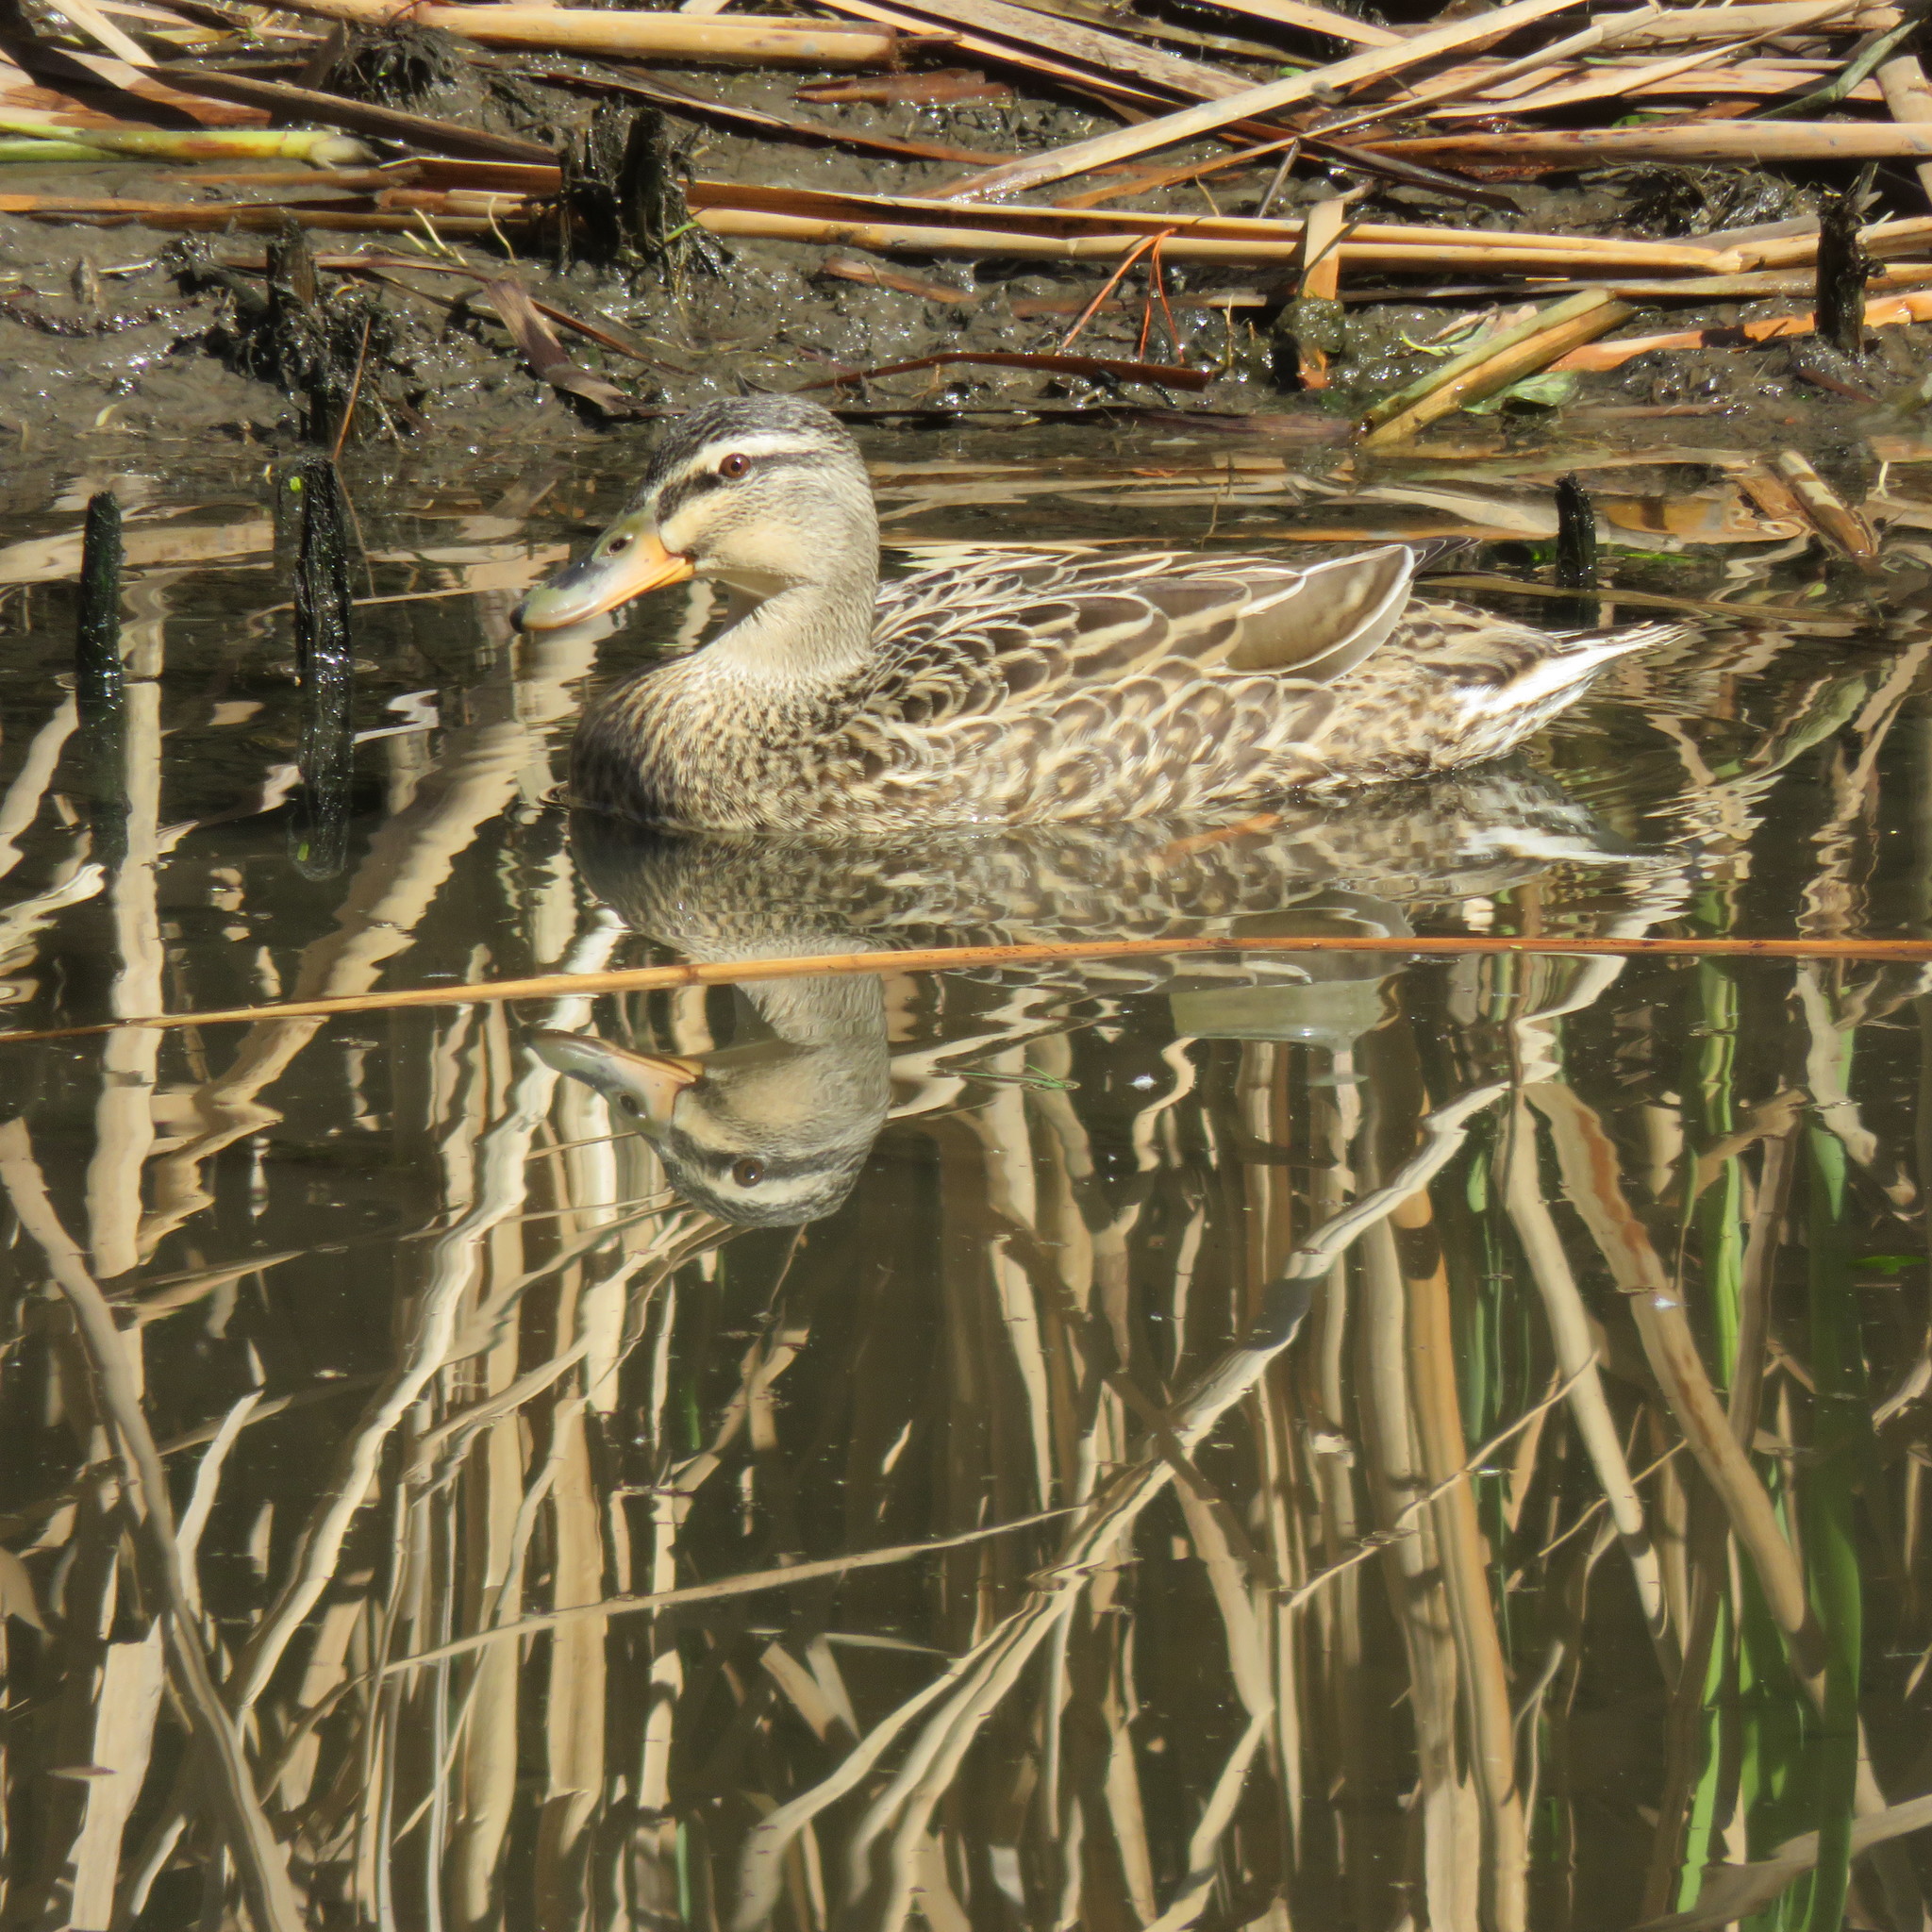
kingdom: Animalia
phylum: Chordata
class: Aves
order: Anseriformes
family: Anatidae
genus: Anas
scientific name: Anas
